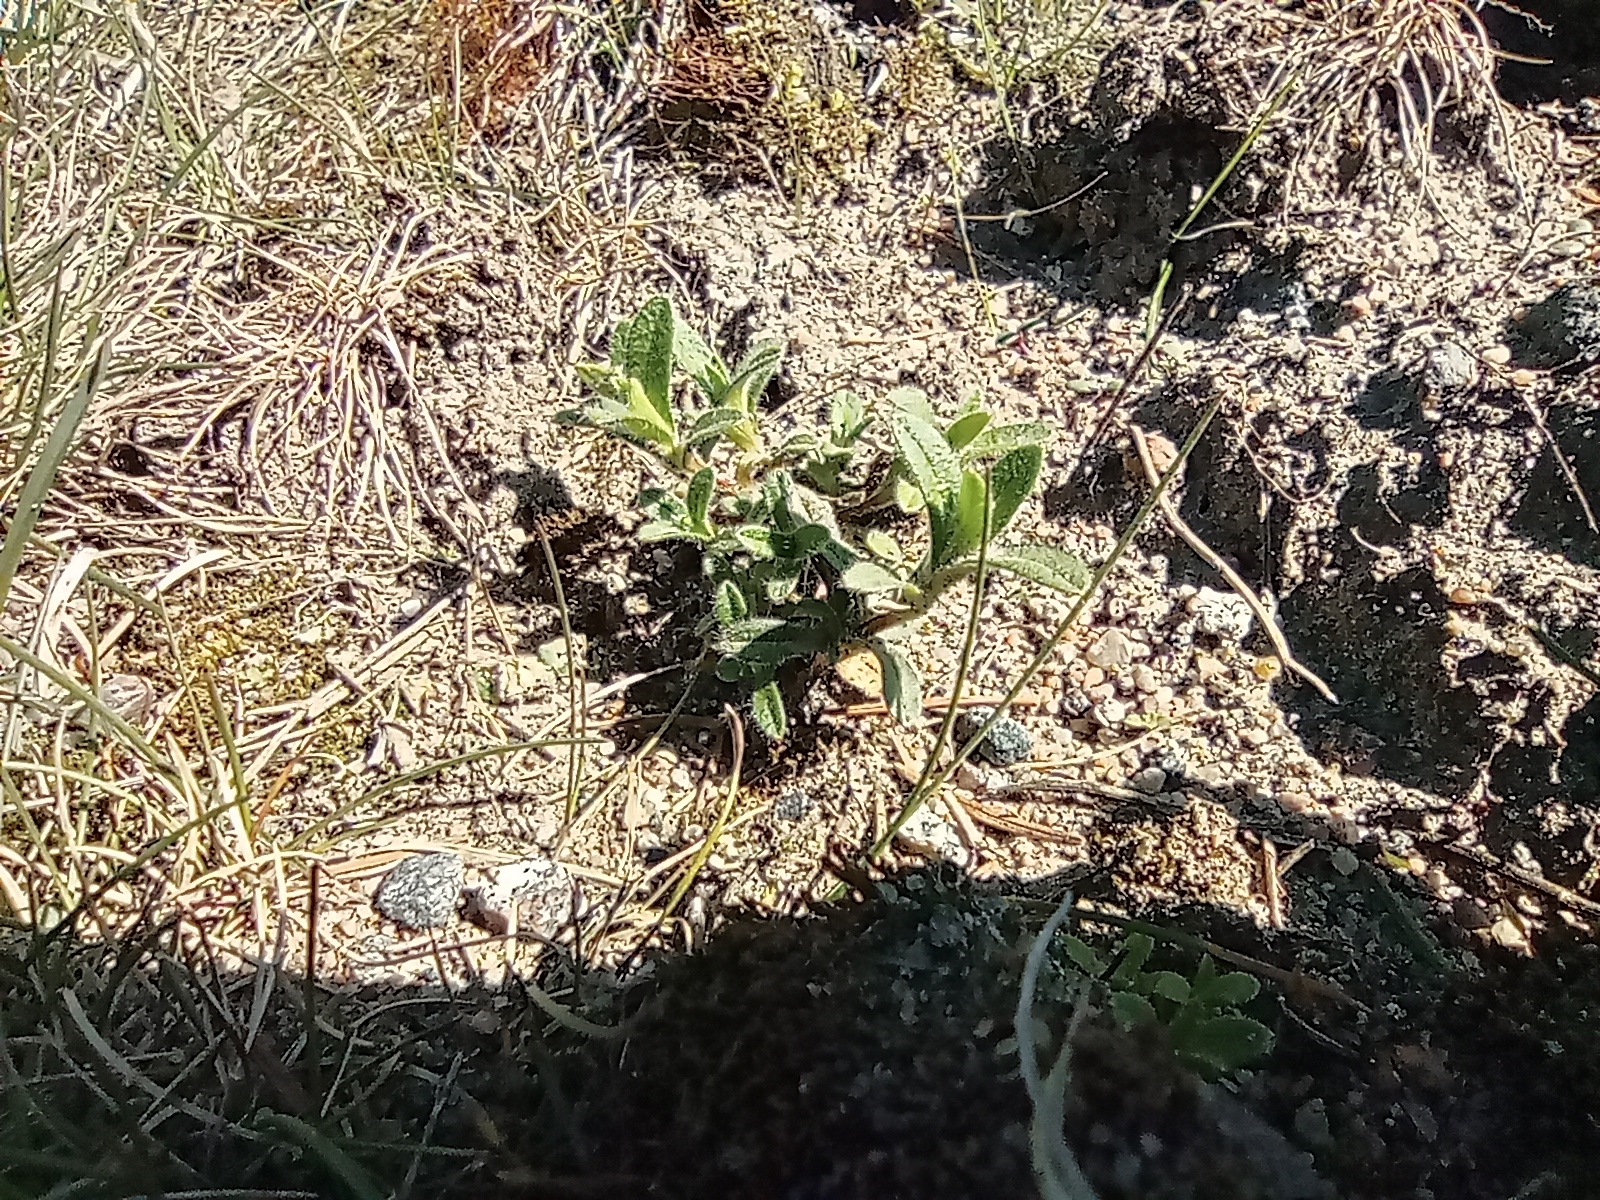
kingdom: Plantae
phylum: Tracheophyta
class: Magnoliopsida
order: Caryophyllales
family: Caryophyllaceae
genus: Cerastium
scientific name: Cerastium holosteoides
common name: Big chickweed
